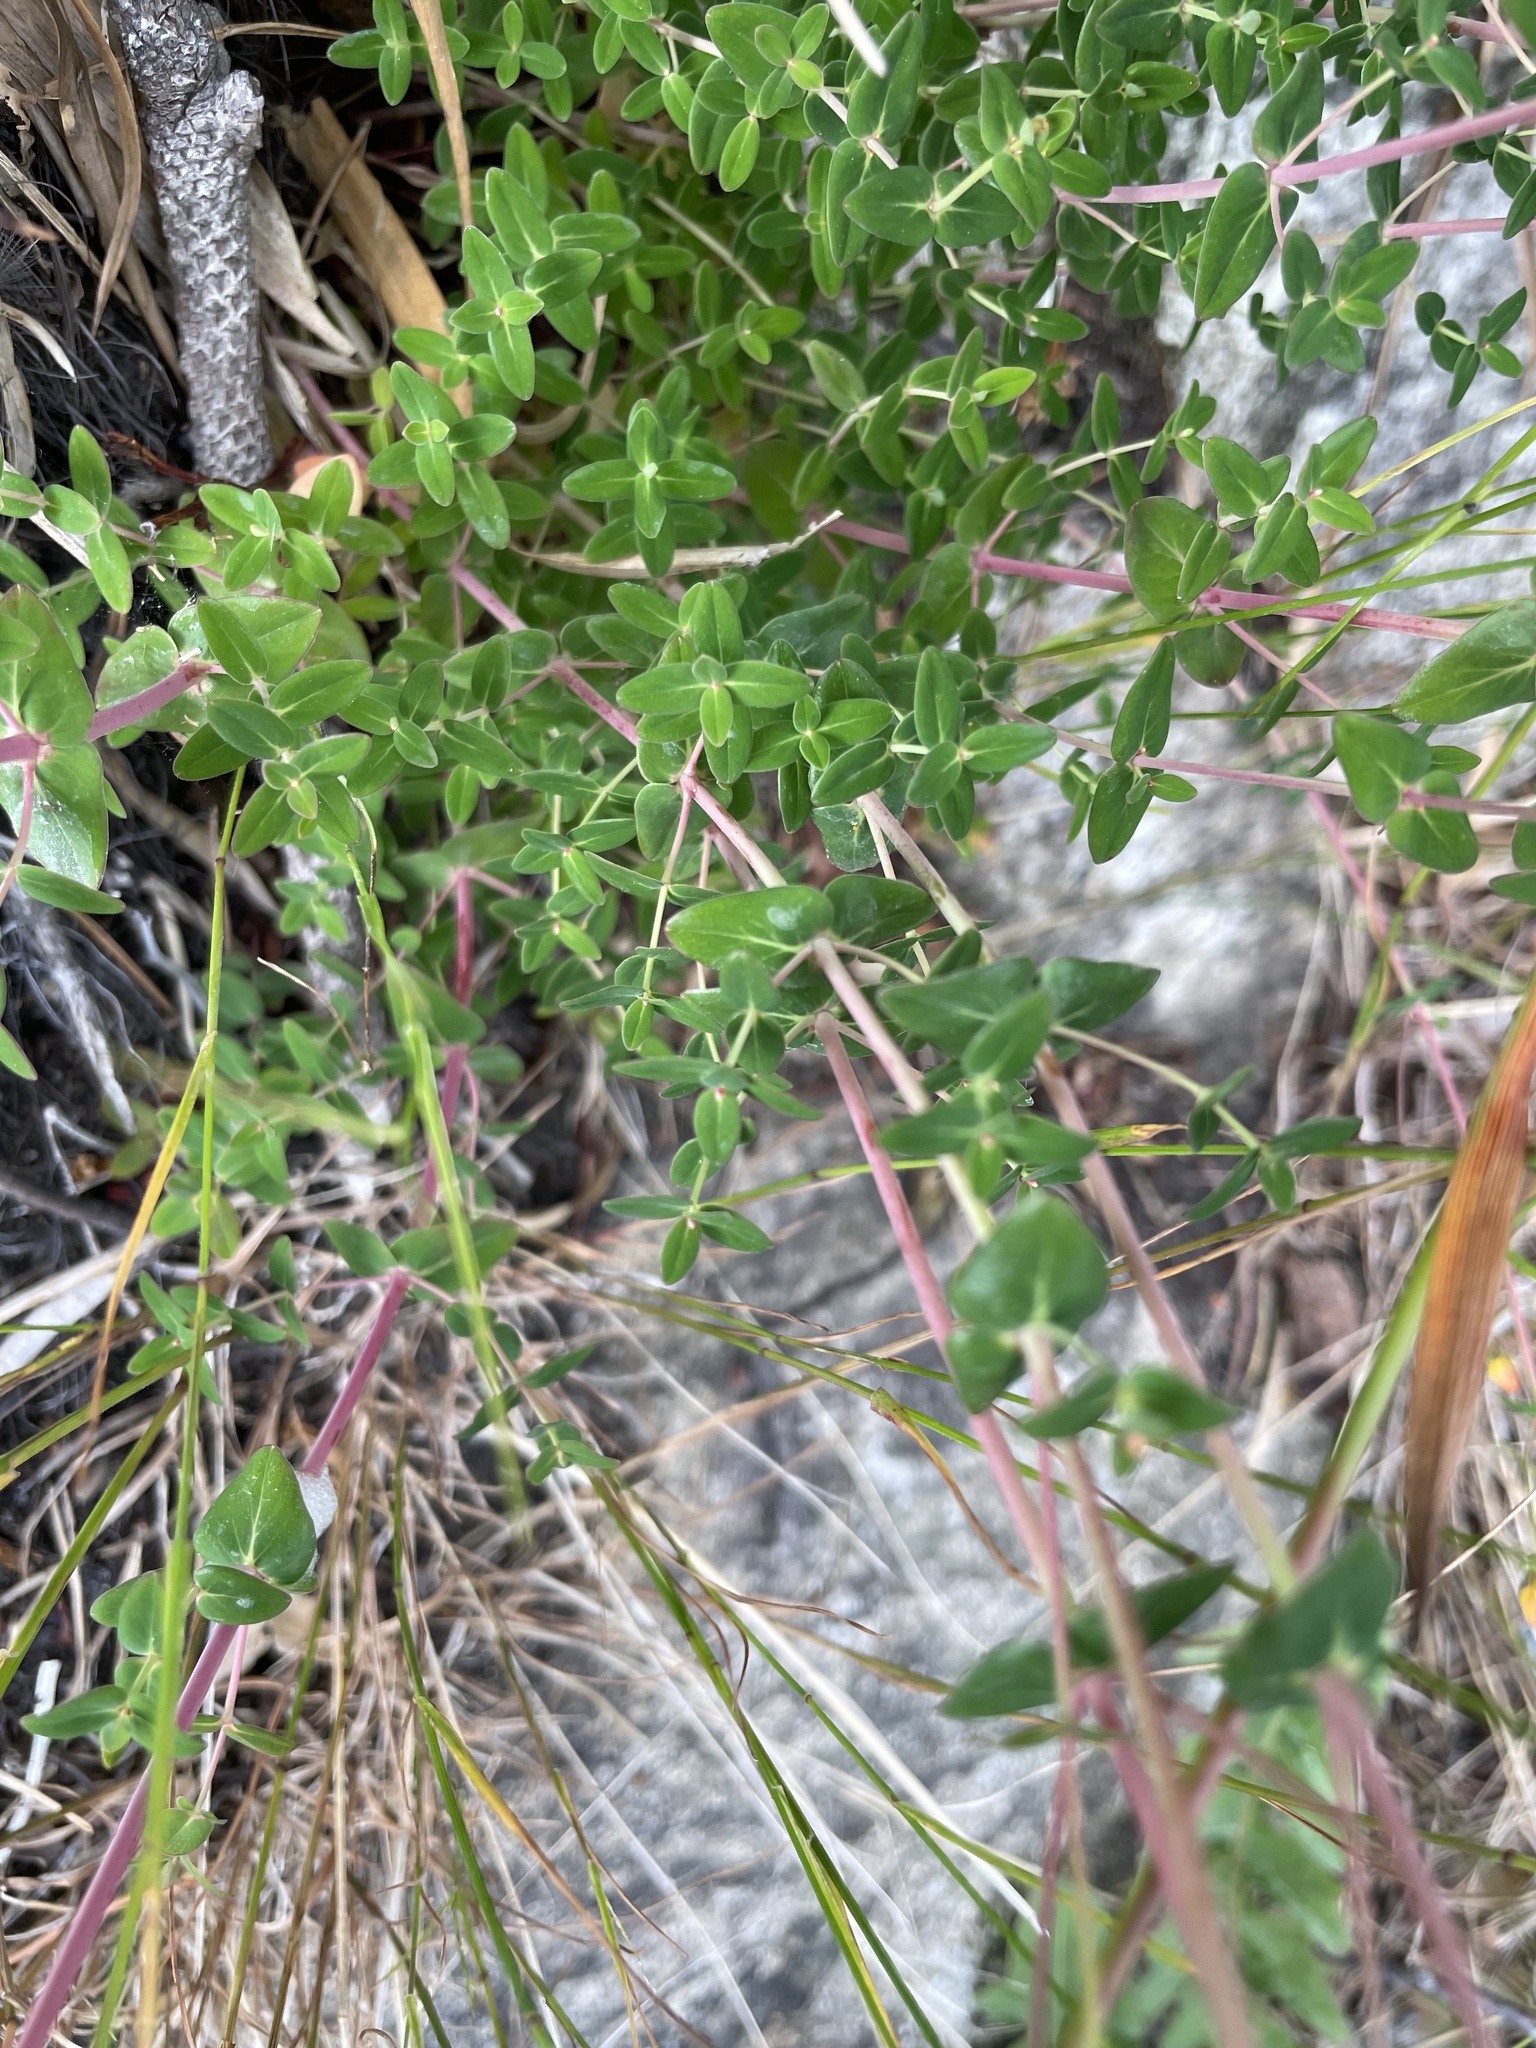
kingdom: Plantae
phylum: Tracheophyta
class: Magnoliopsida
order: Malpighiales
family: Hypericaceae
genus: Hypericum
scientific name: Hypericum pulchrum
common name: Slender st. john's-wort
